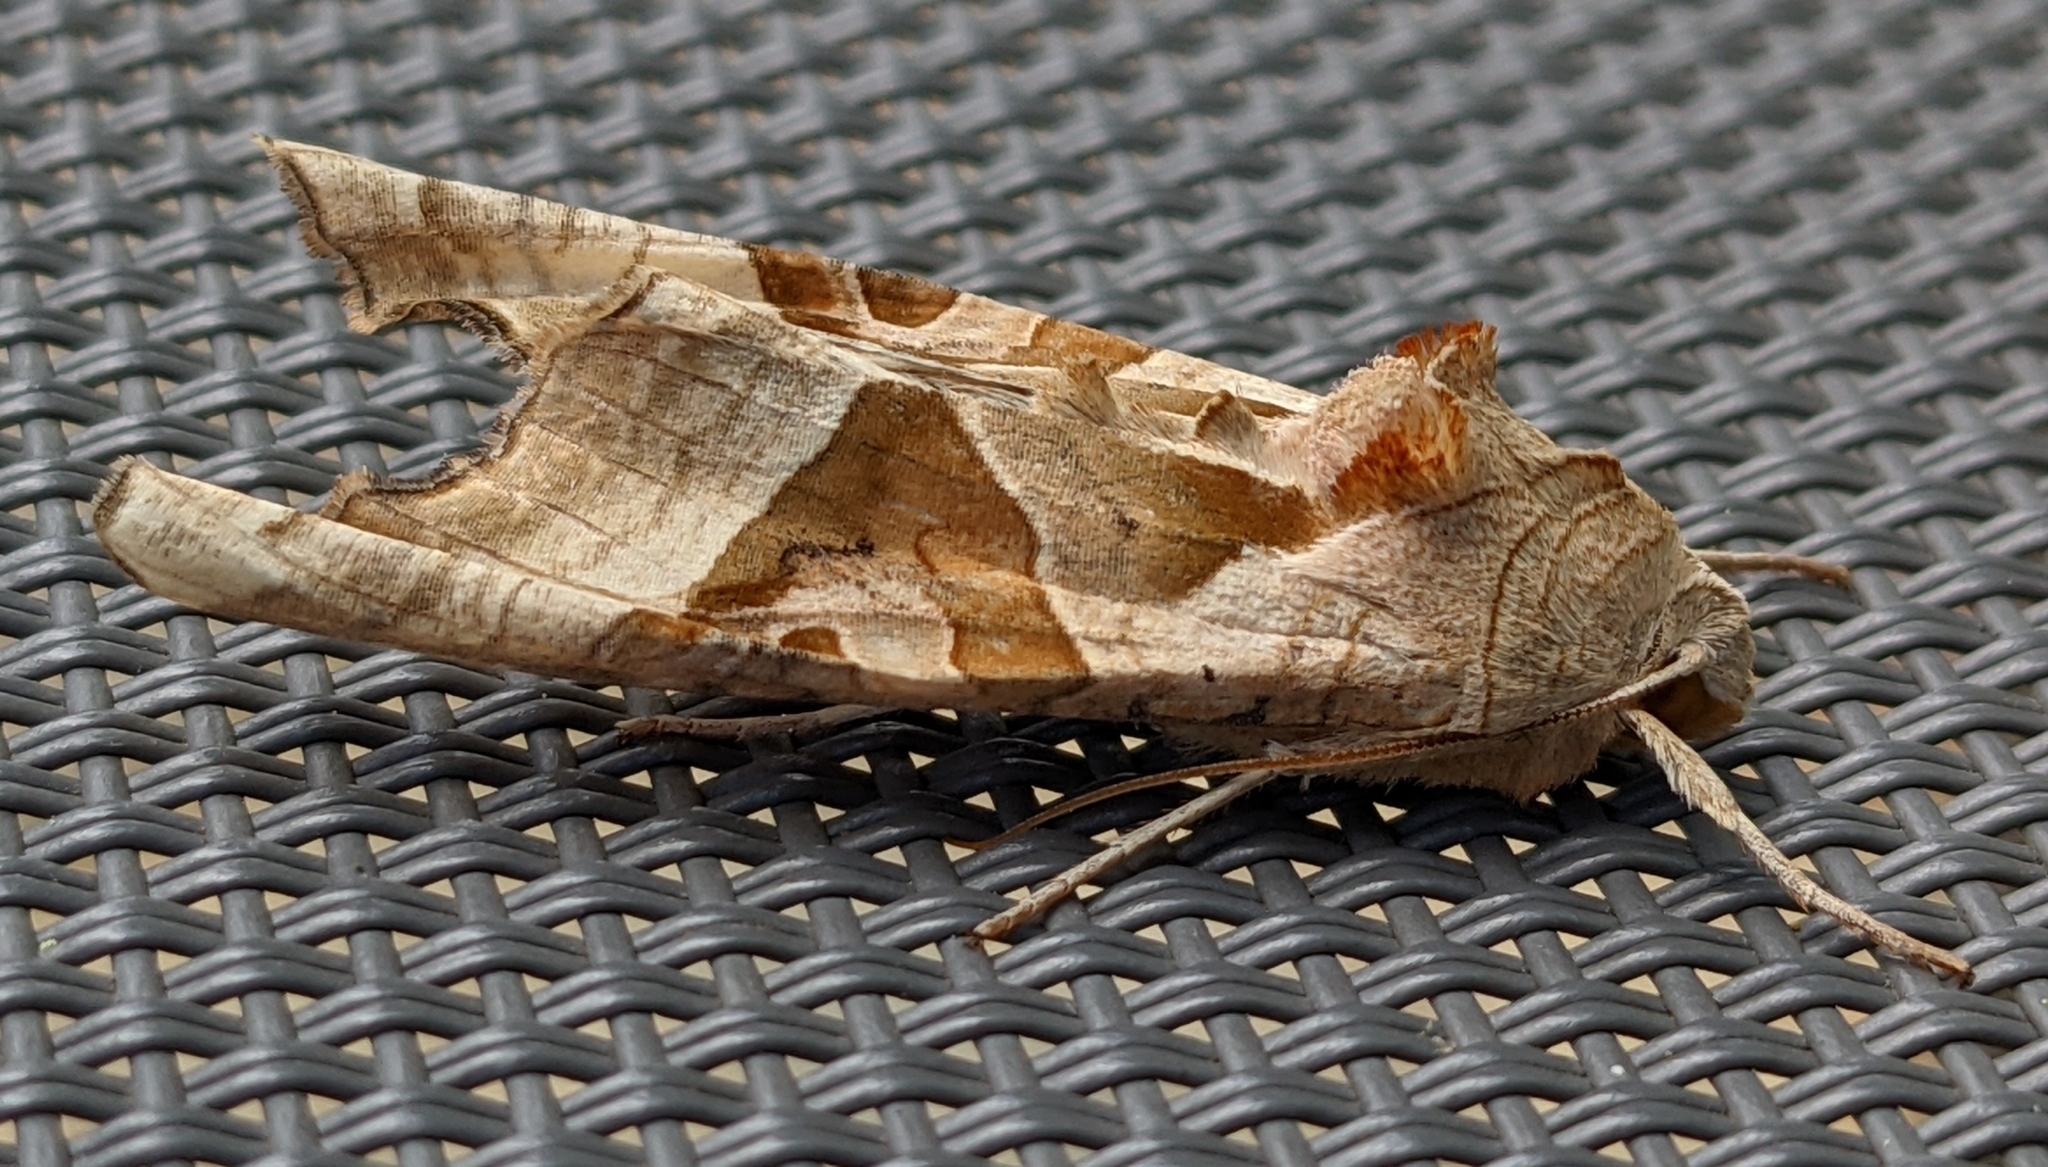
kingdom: Animalia
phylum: Arthropoda
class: Insecta
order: Lepidoptera
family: Noctuidae
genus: Phlogophora
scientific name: Phlogophora meticulosa
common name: Angle shades
